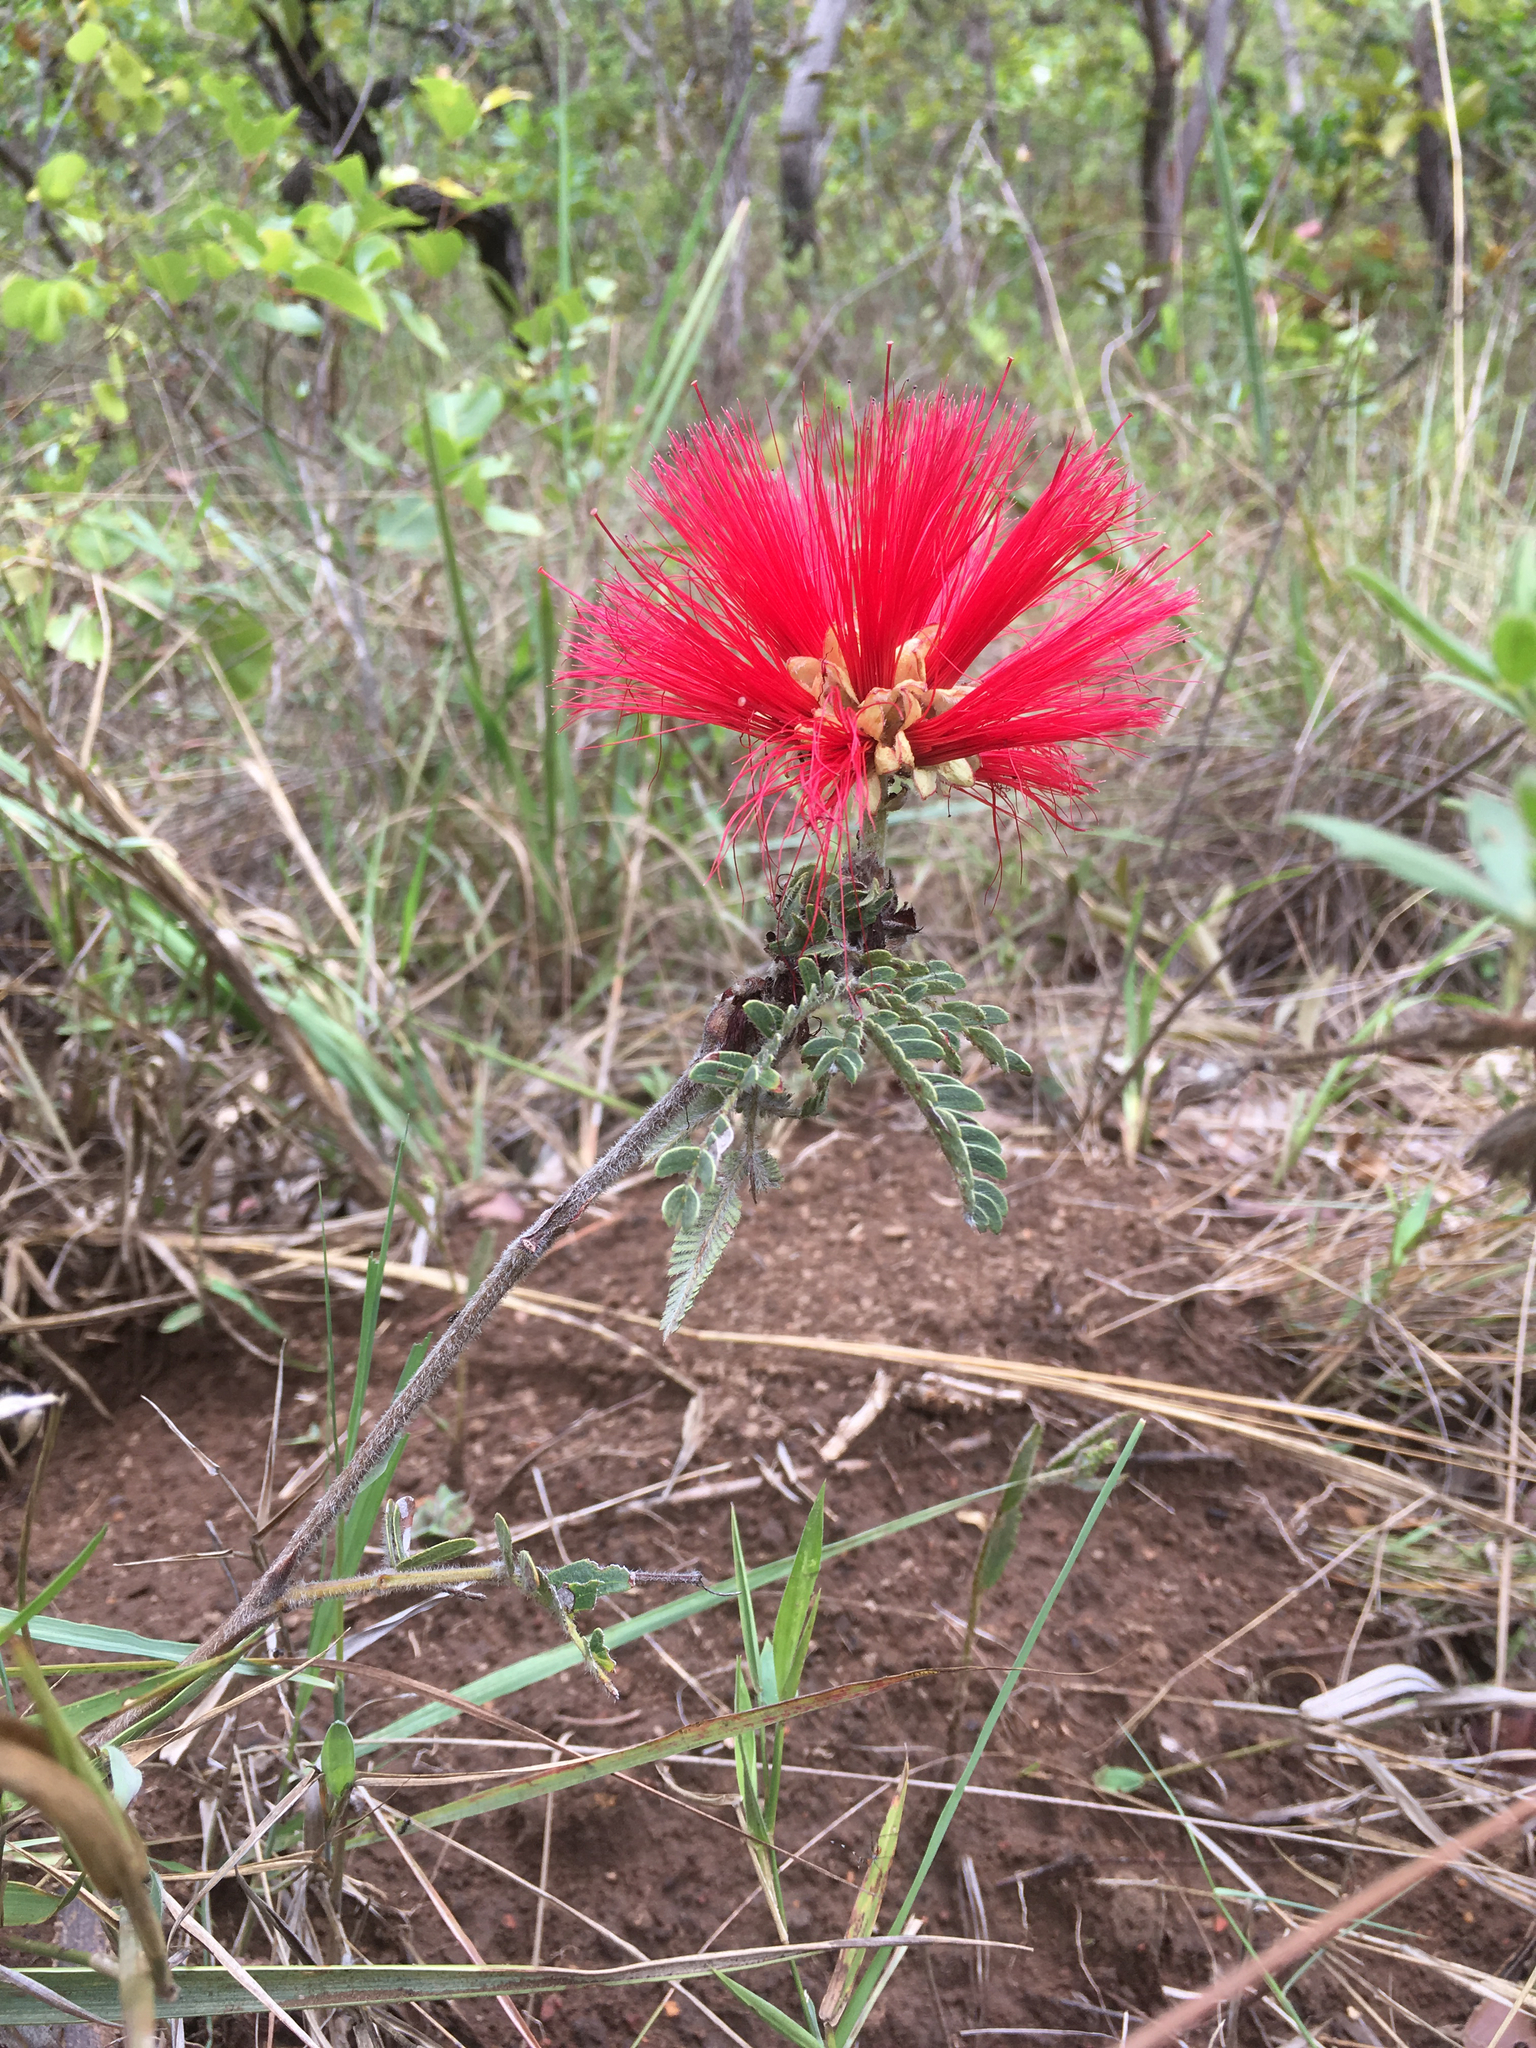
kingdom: Plantae
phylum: Tracheophyta
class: Magnoliopsida
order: Fabales
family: Fabaceae
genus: Calliandra
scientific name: Calliandra dysantha
